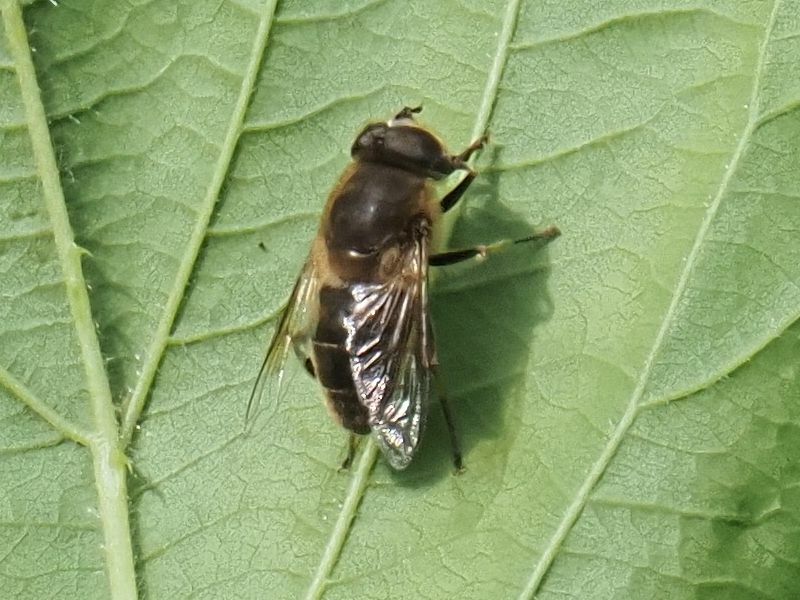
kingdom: Animalia
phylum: Arthropoda
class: Insecta
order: Diptera
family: Syrphidae
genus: Eristalis
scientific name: Eristalis tenax
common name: Drone fly
